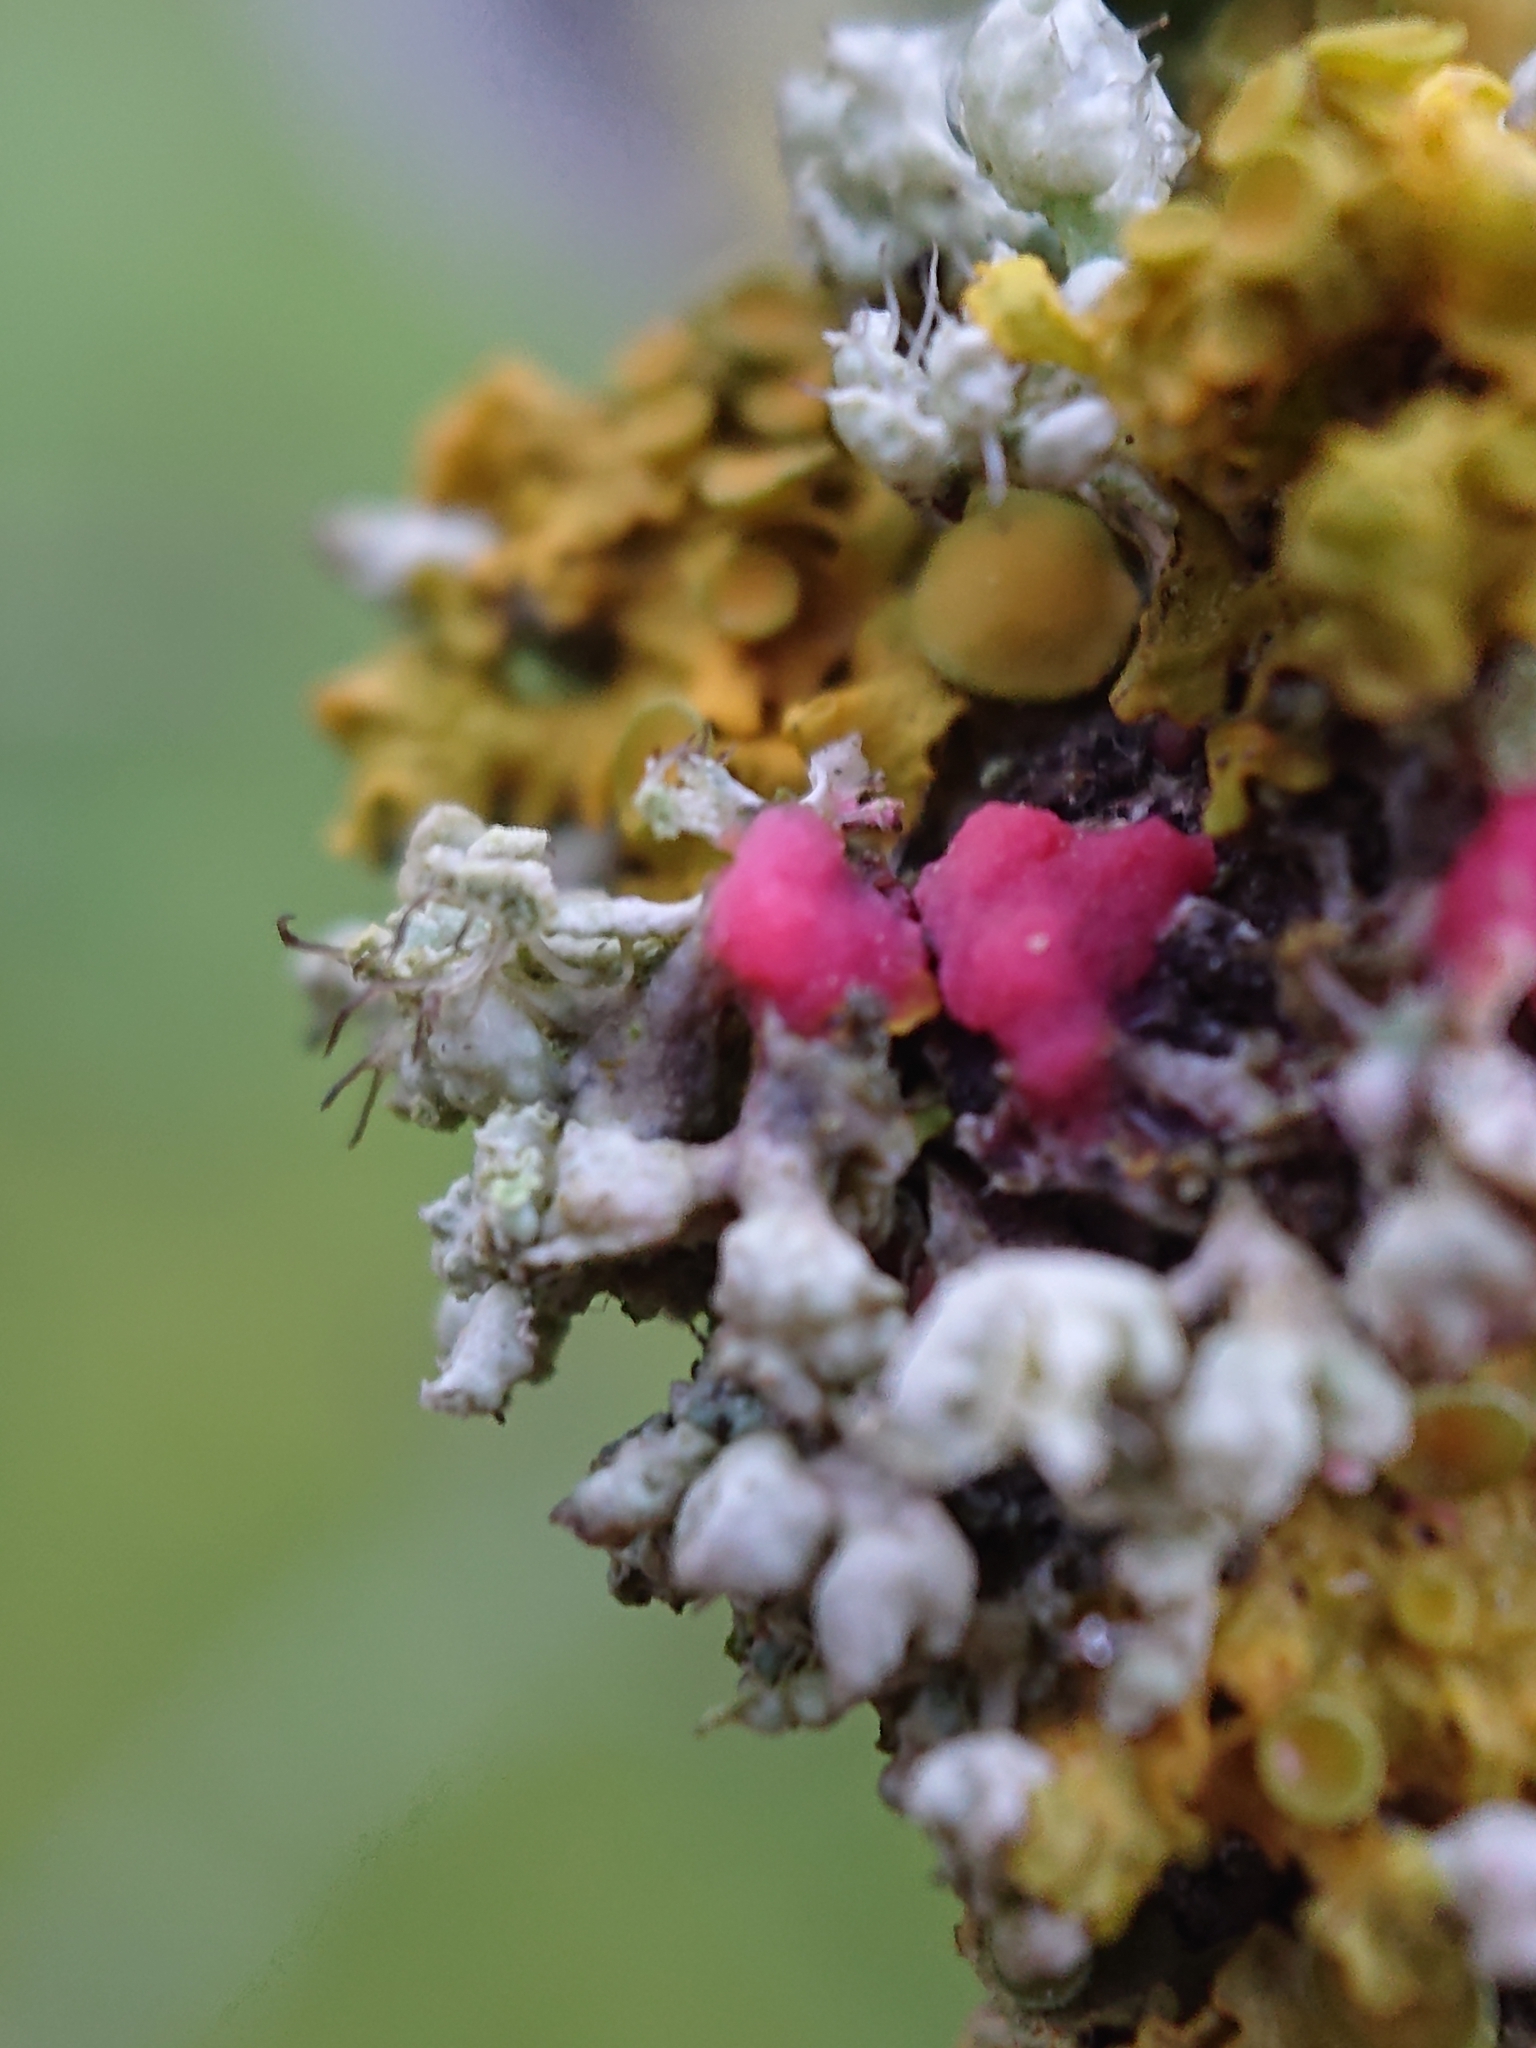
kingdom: Fungi
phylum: Ascomycota
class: Sordariomycetes
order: Hypocreales
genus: Illosporiopsis
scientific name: Illosporiopsis christiansenii
